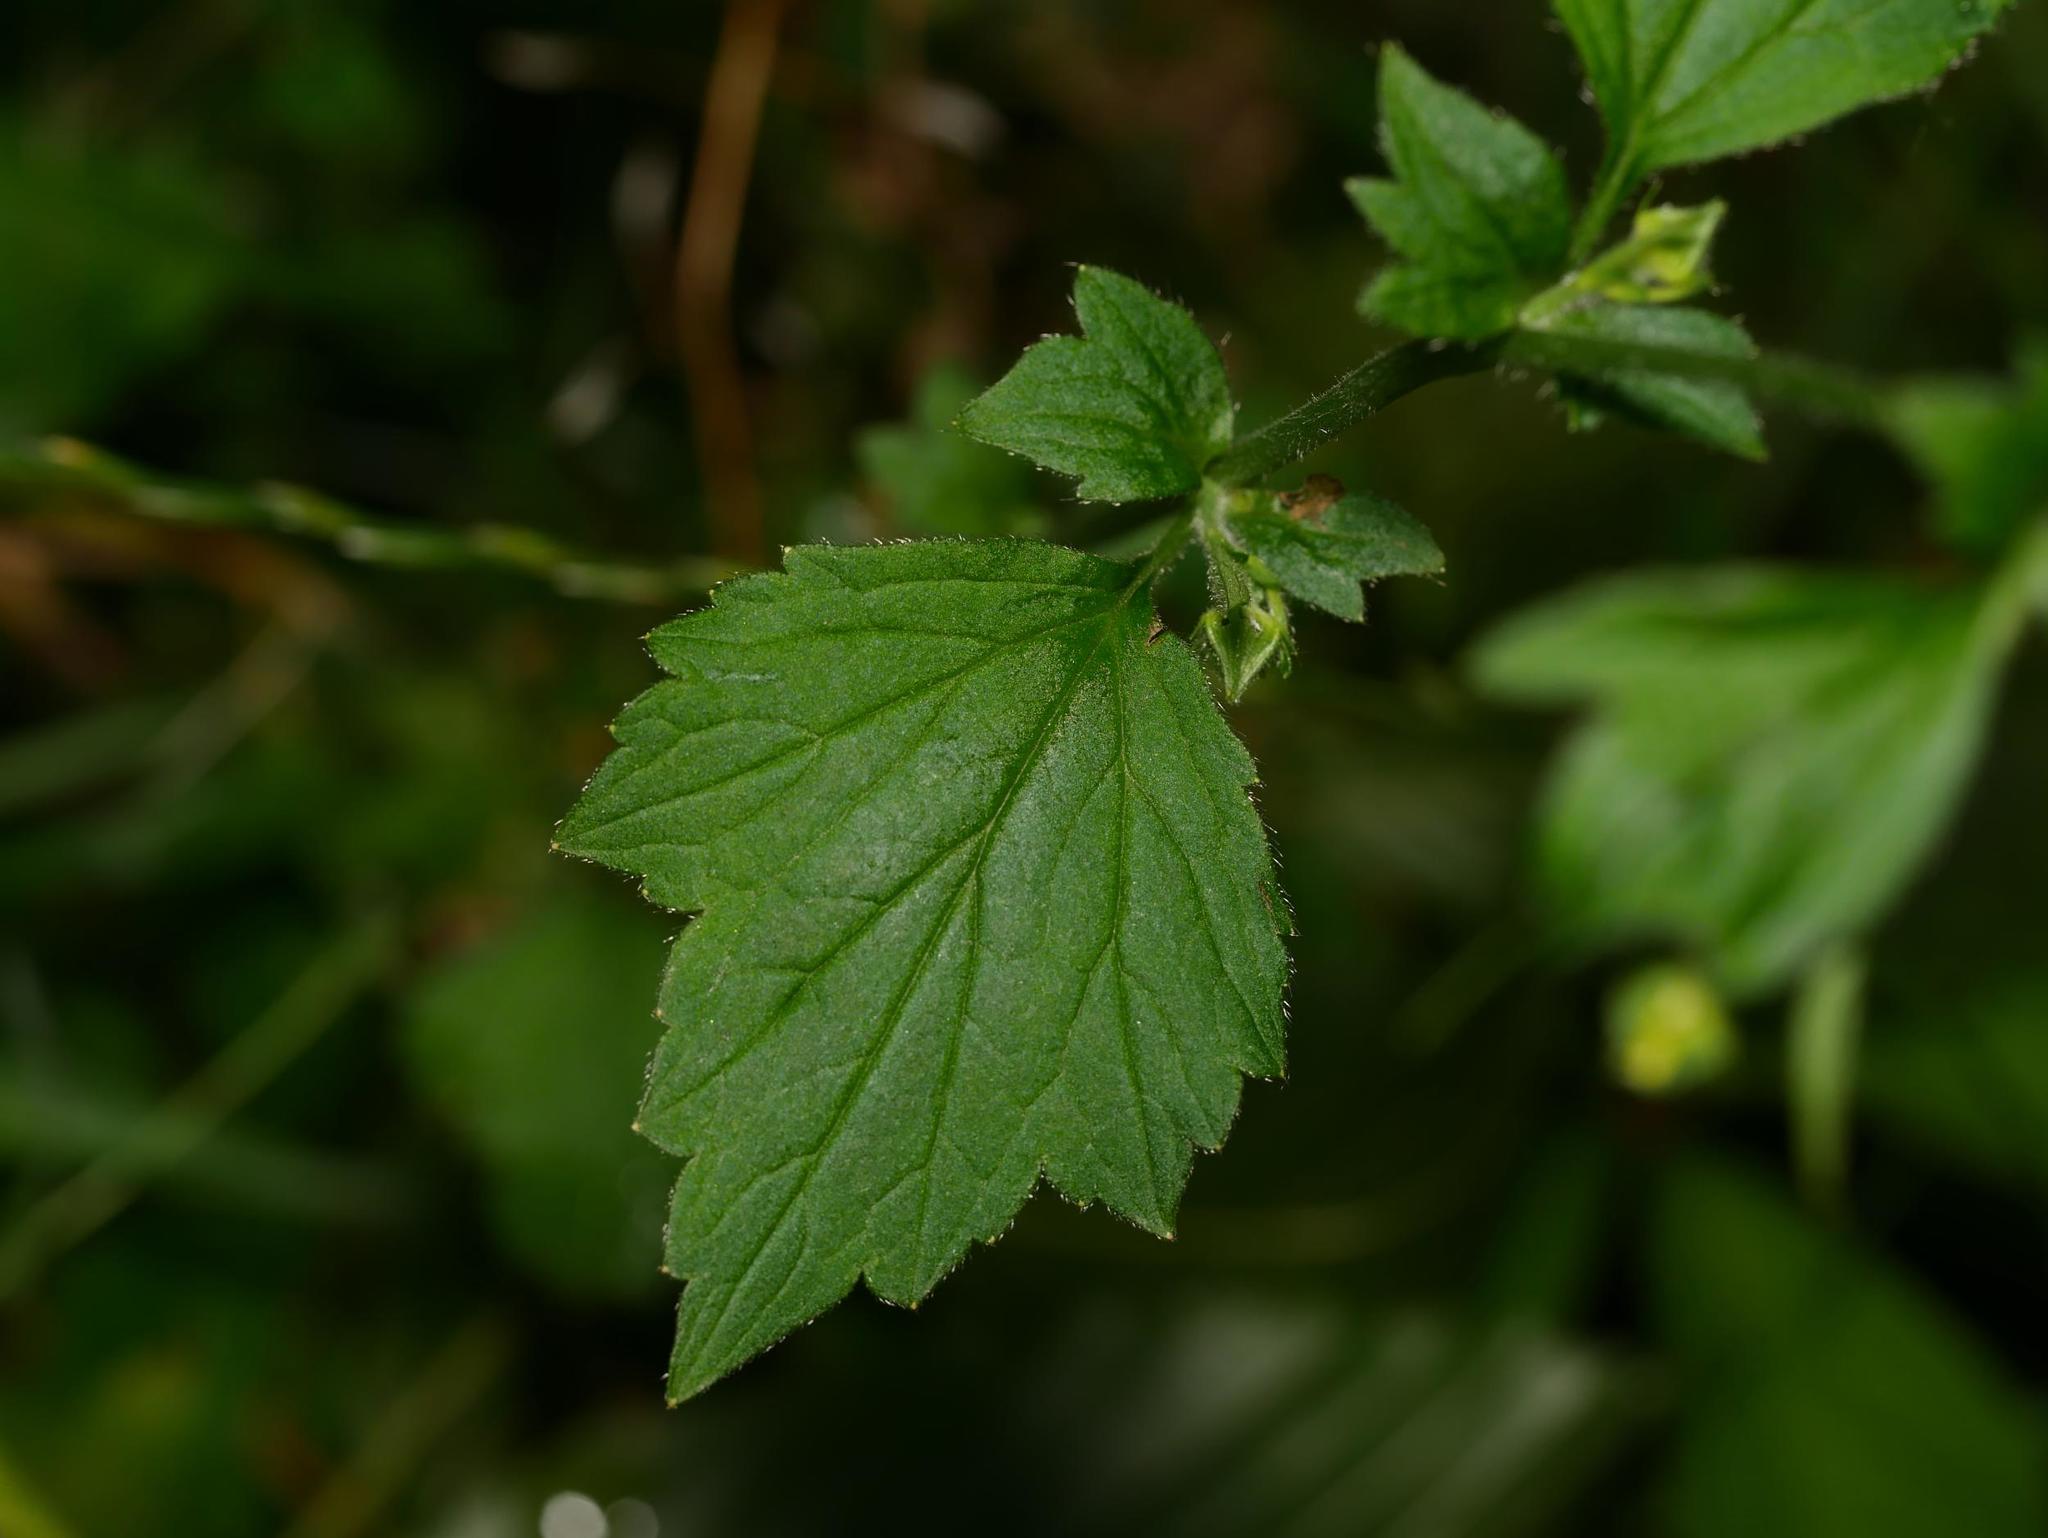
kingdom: Plantae
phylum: Tracheophyta
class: Magnoliopsida
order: Rosales
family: Rosaceae
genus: Geum
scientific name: Geum urbanum
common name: Wood avens
